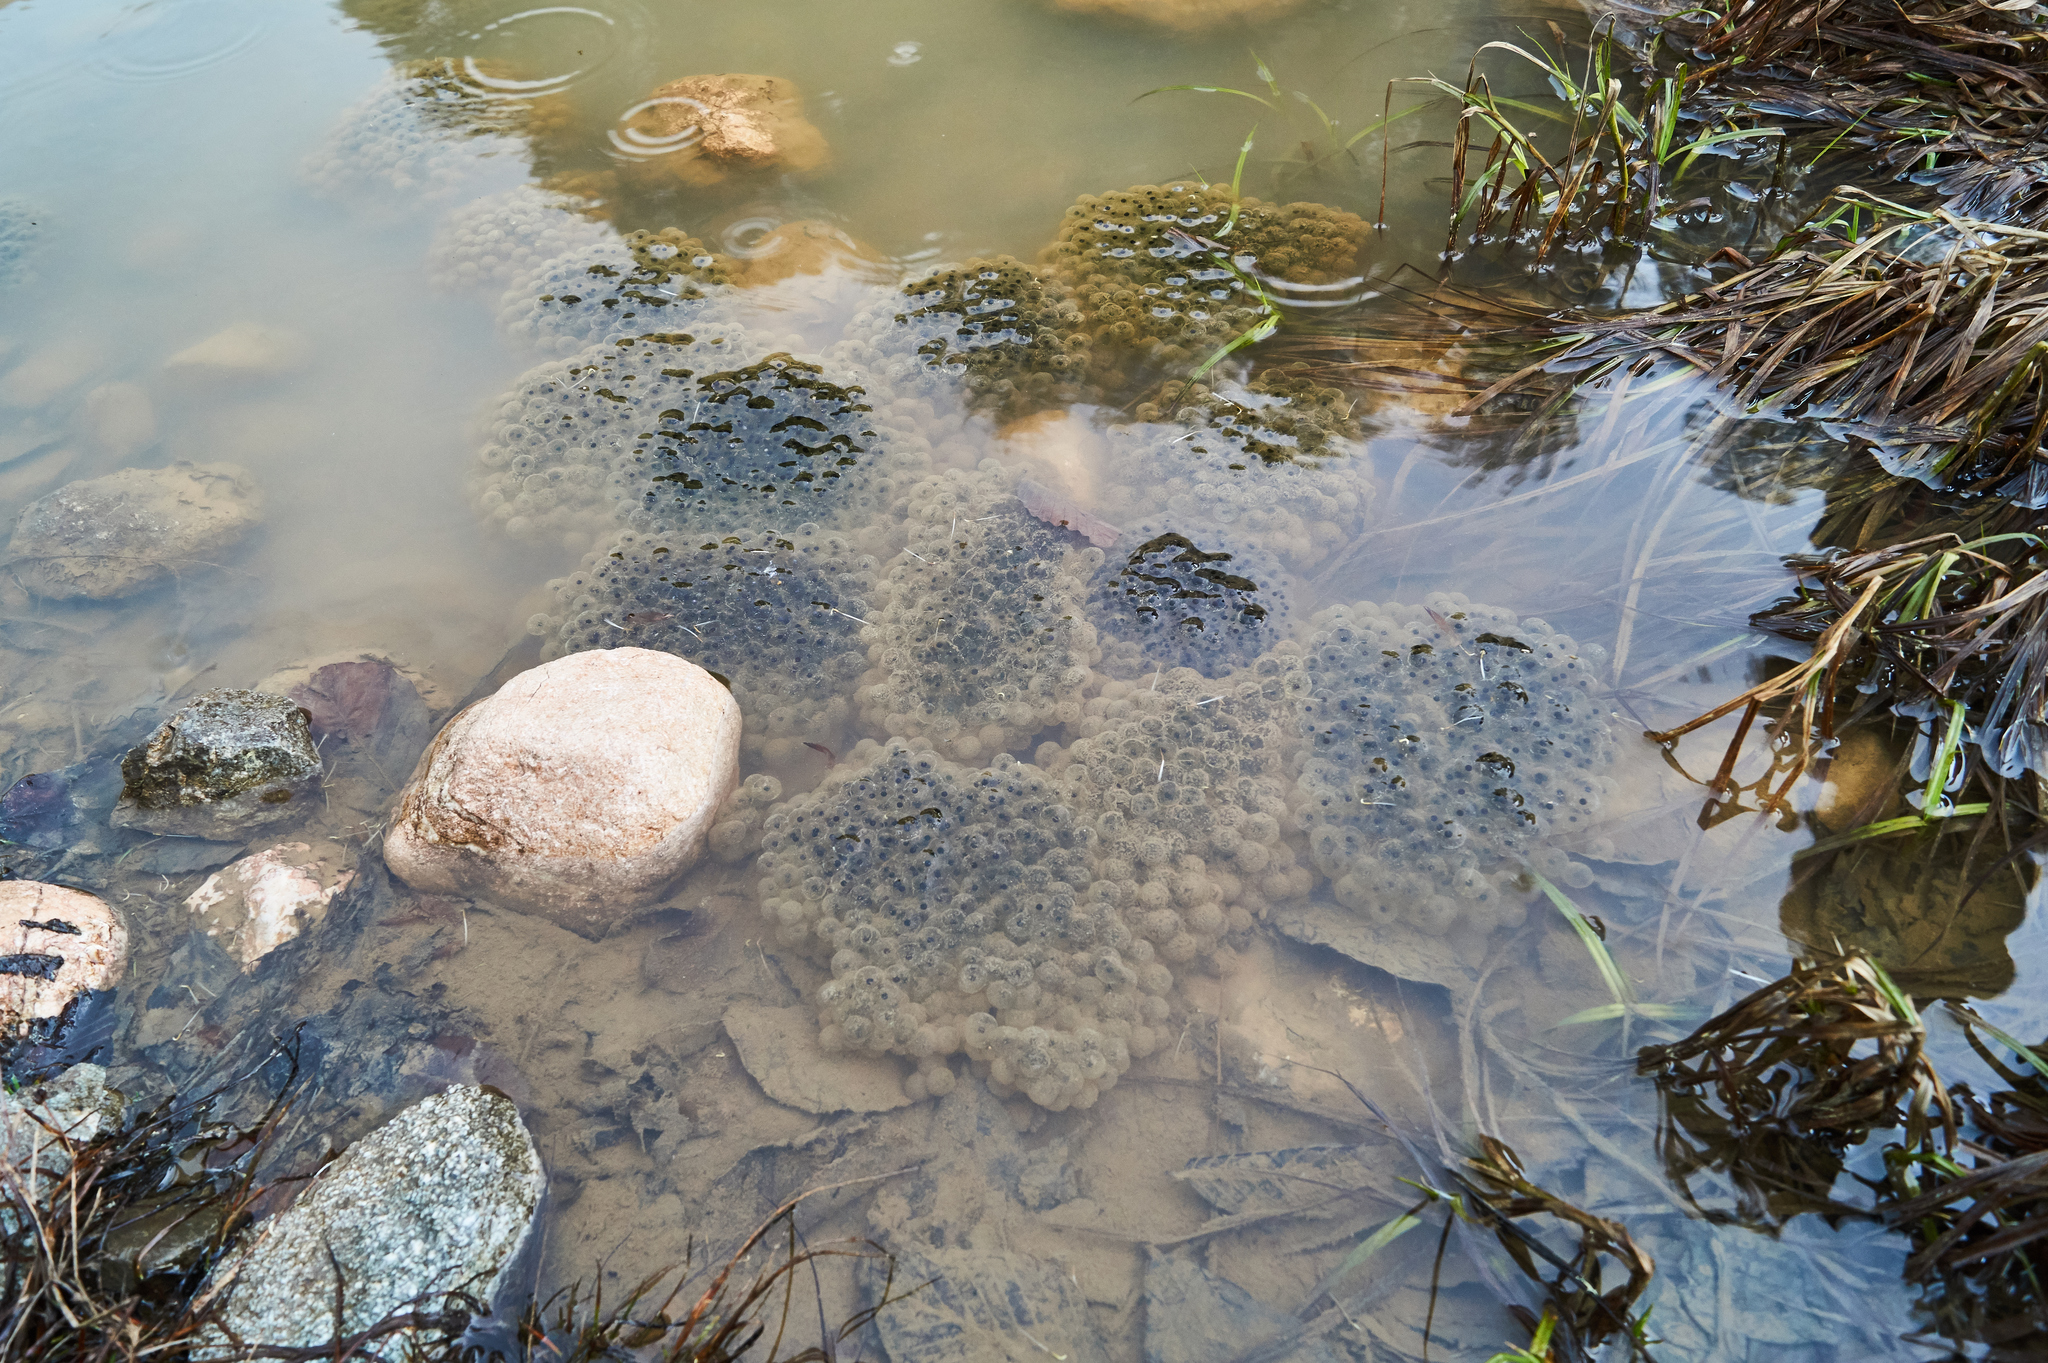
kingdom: Animalia
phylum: Chordata
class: Amphibia
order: Anura
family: Ranidae
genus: Rana
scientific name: Rana macrocnemis
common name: Banded frog
